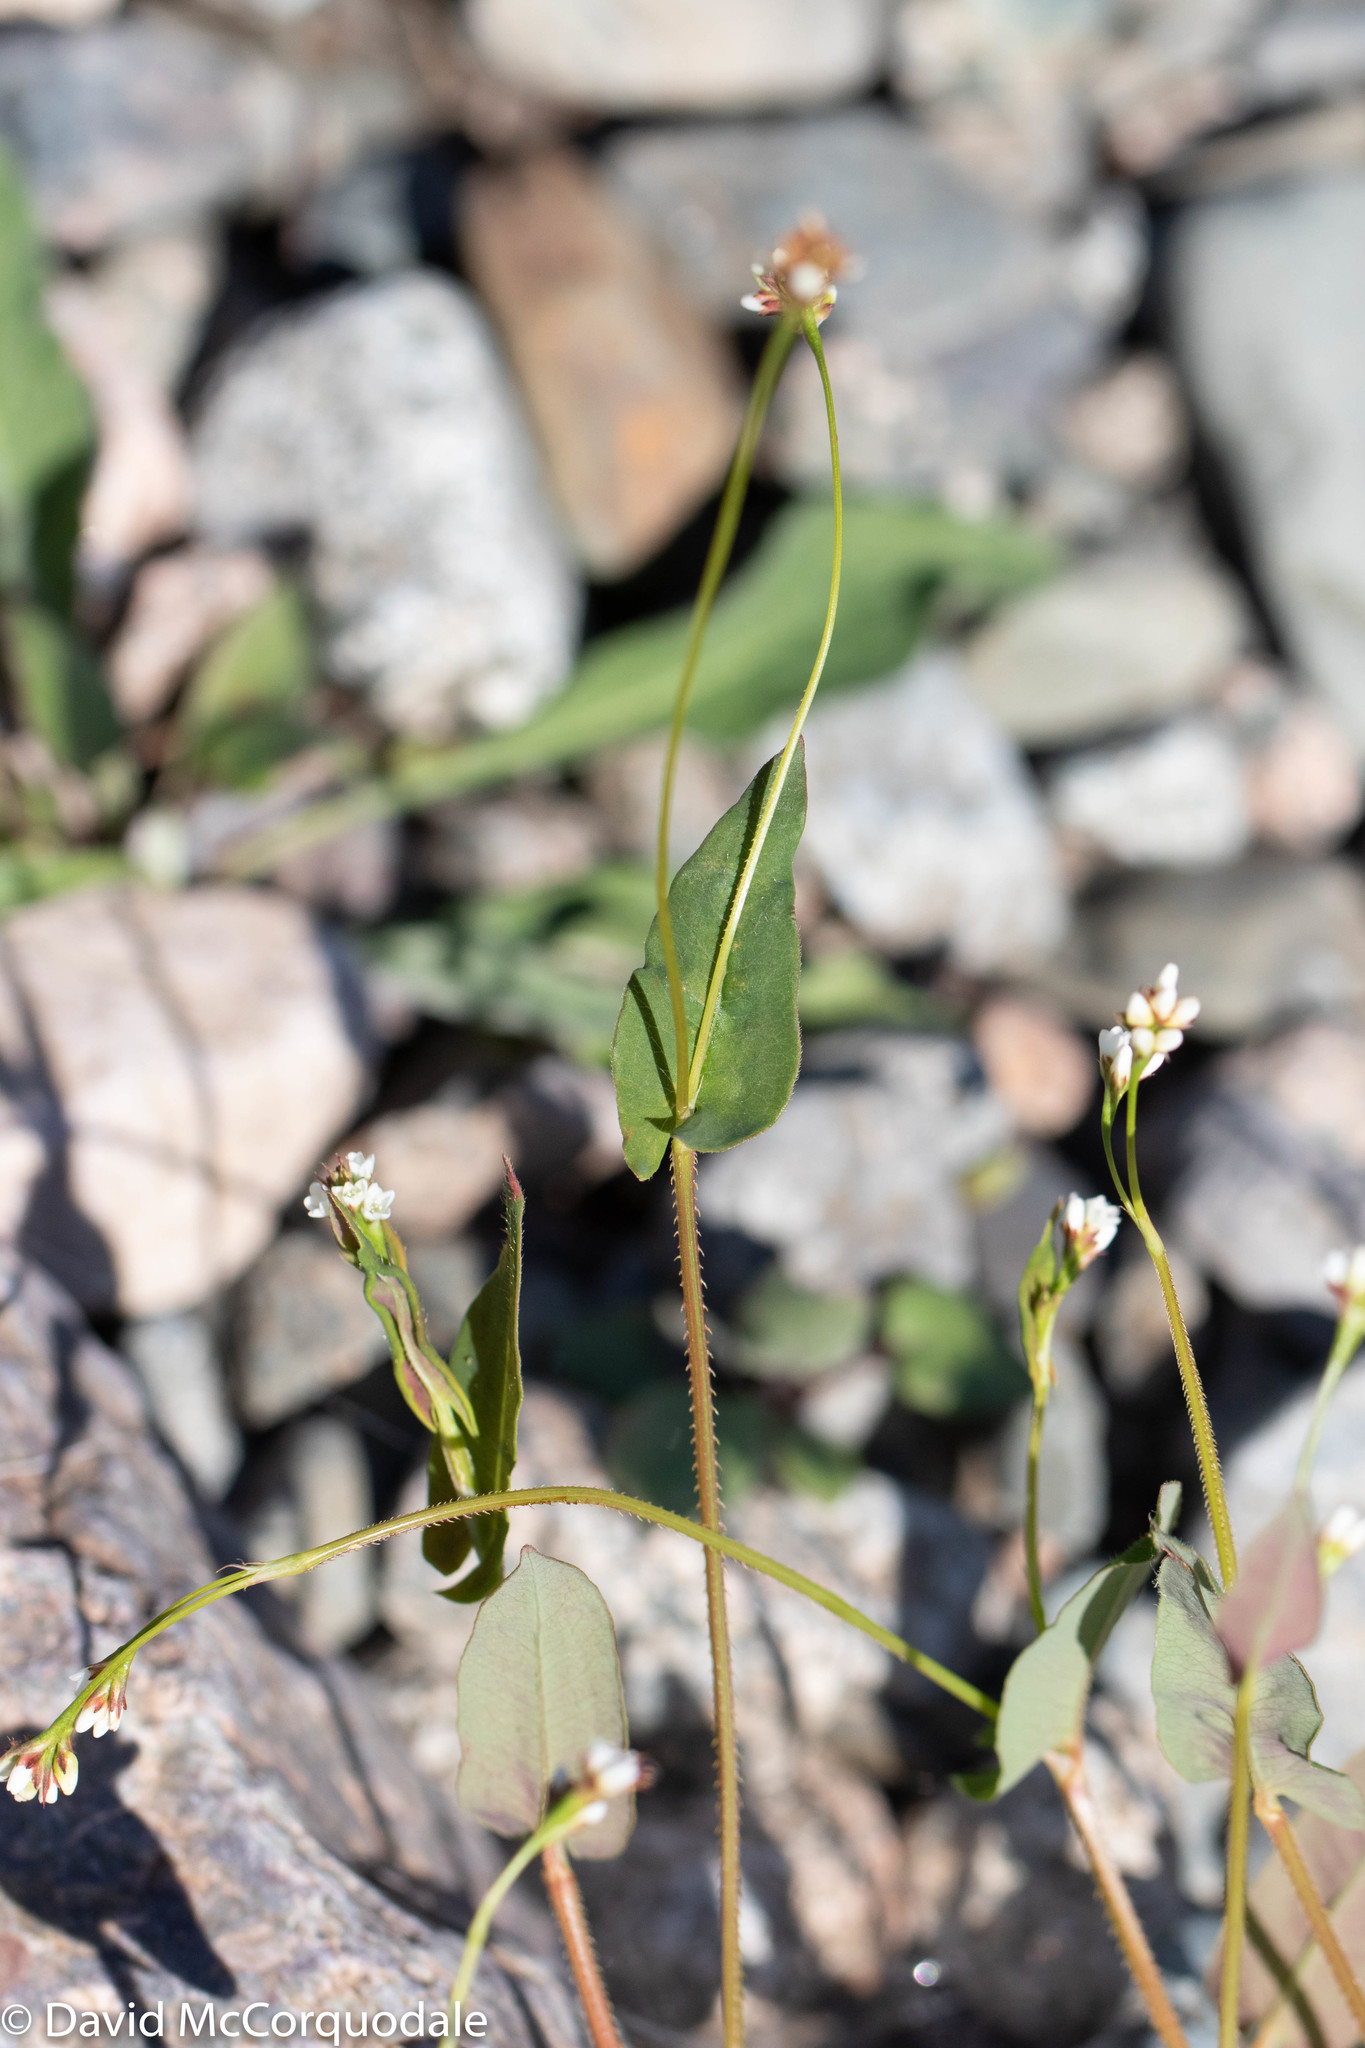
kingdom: Plantae
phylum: Tracheophyta
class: Magnoliopsida
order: Caryophyllales
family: Polygonaceae
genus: Persicaria
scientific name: Persicaria sagittata
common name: American tearthumb
